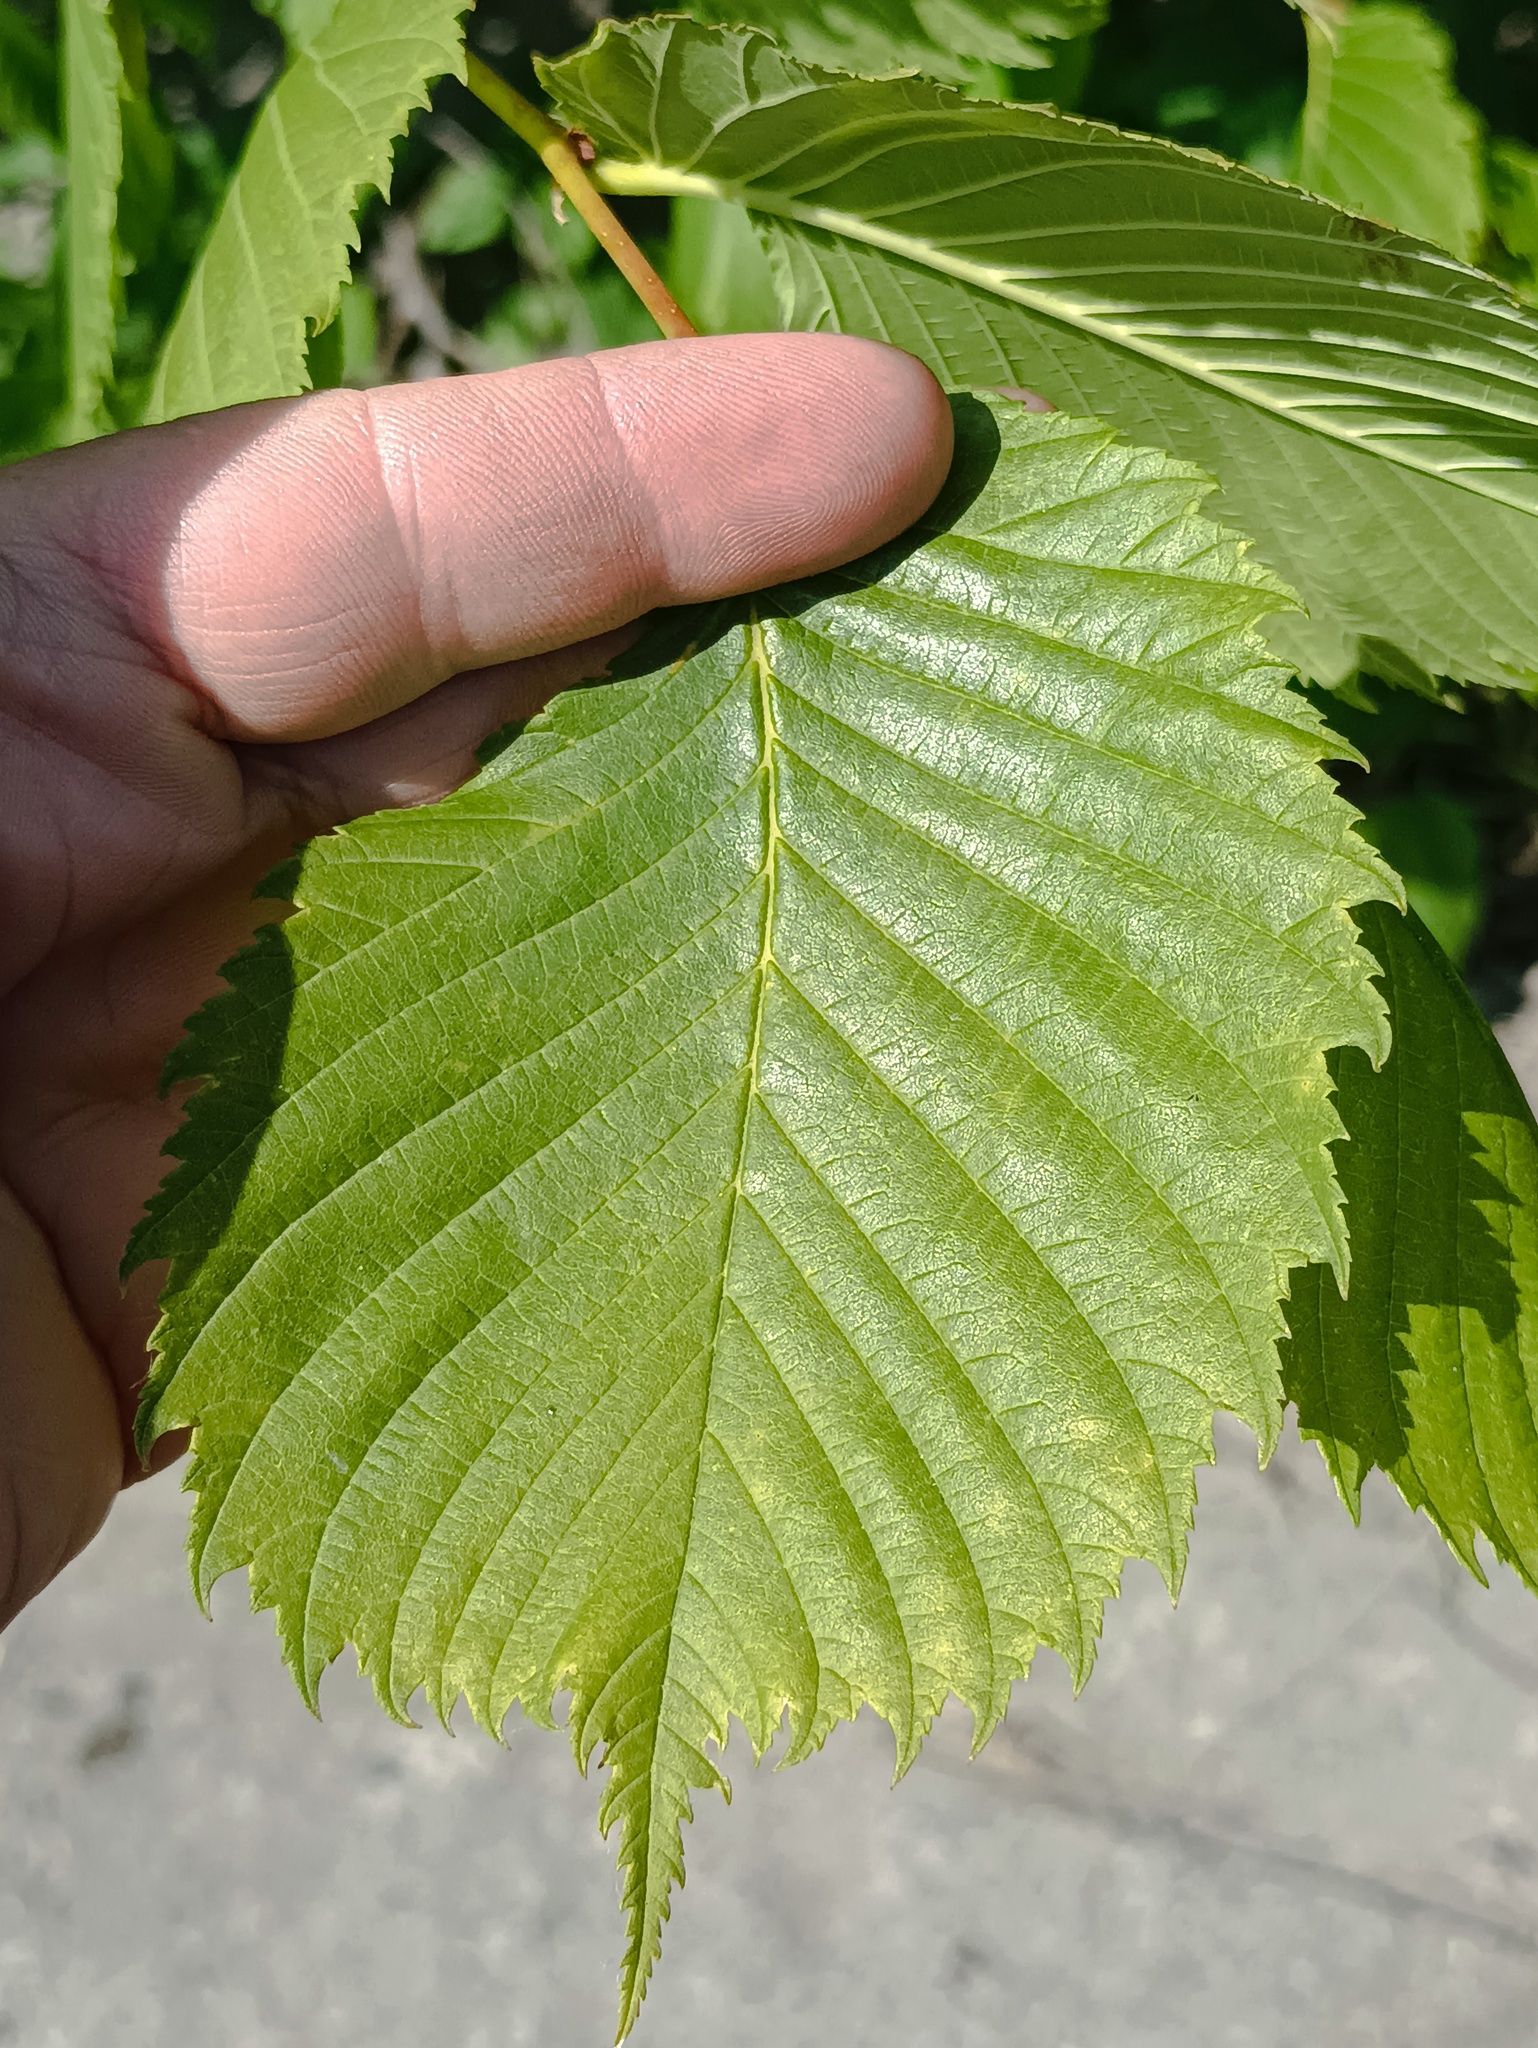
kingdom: Plantae
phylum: Tracheophyta
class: Magnoliopsida
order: Rosales
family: Ulmaceae
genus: Ulmus
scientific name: Ulmus laevis
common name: European white-elm
